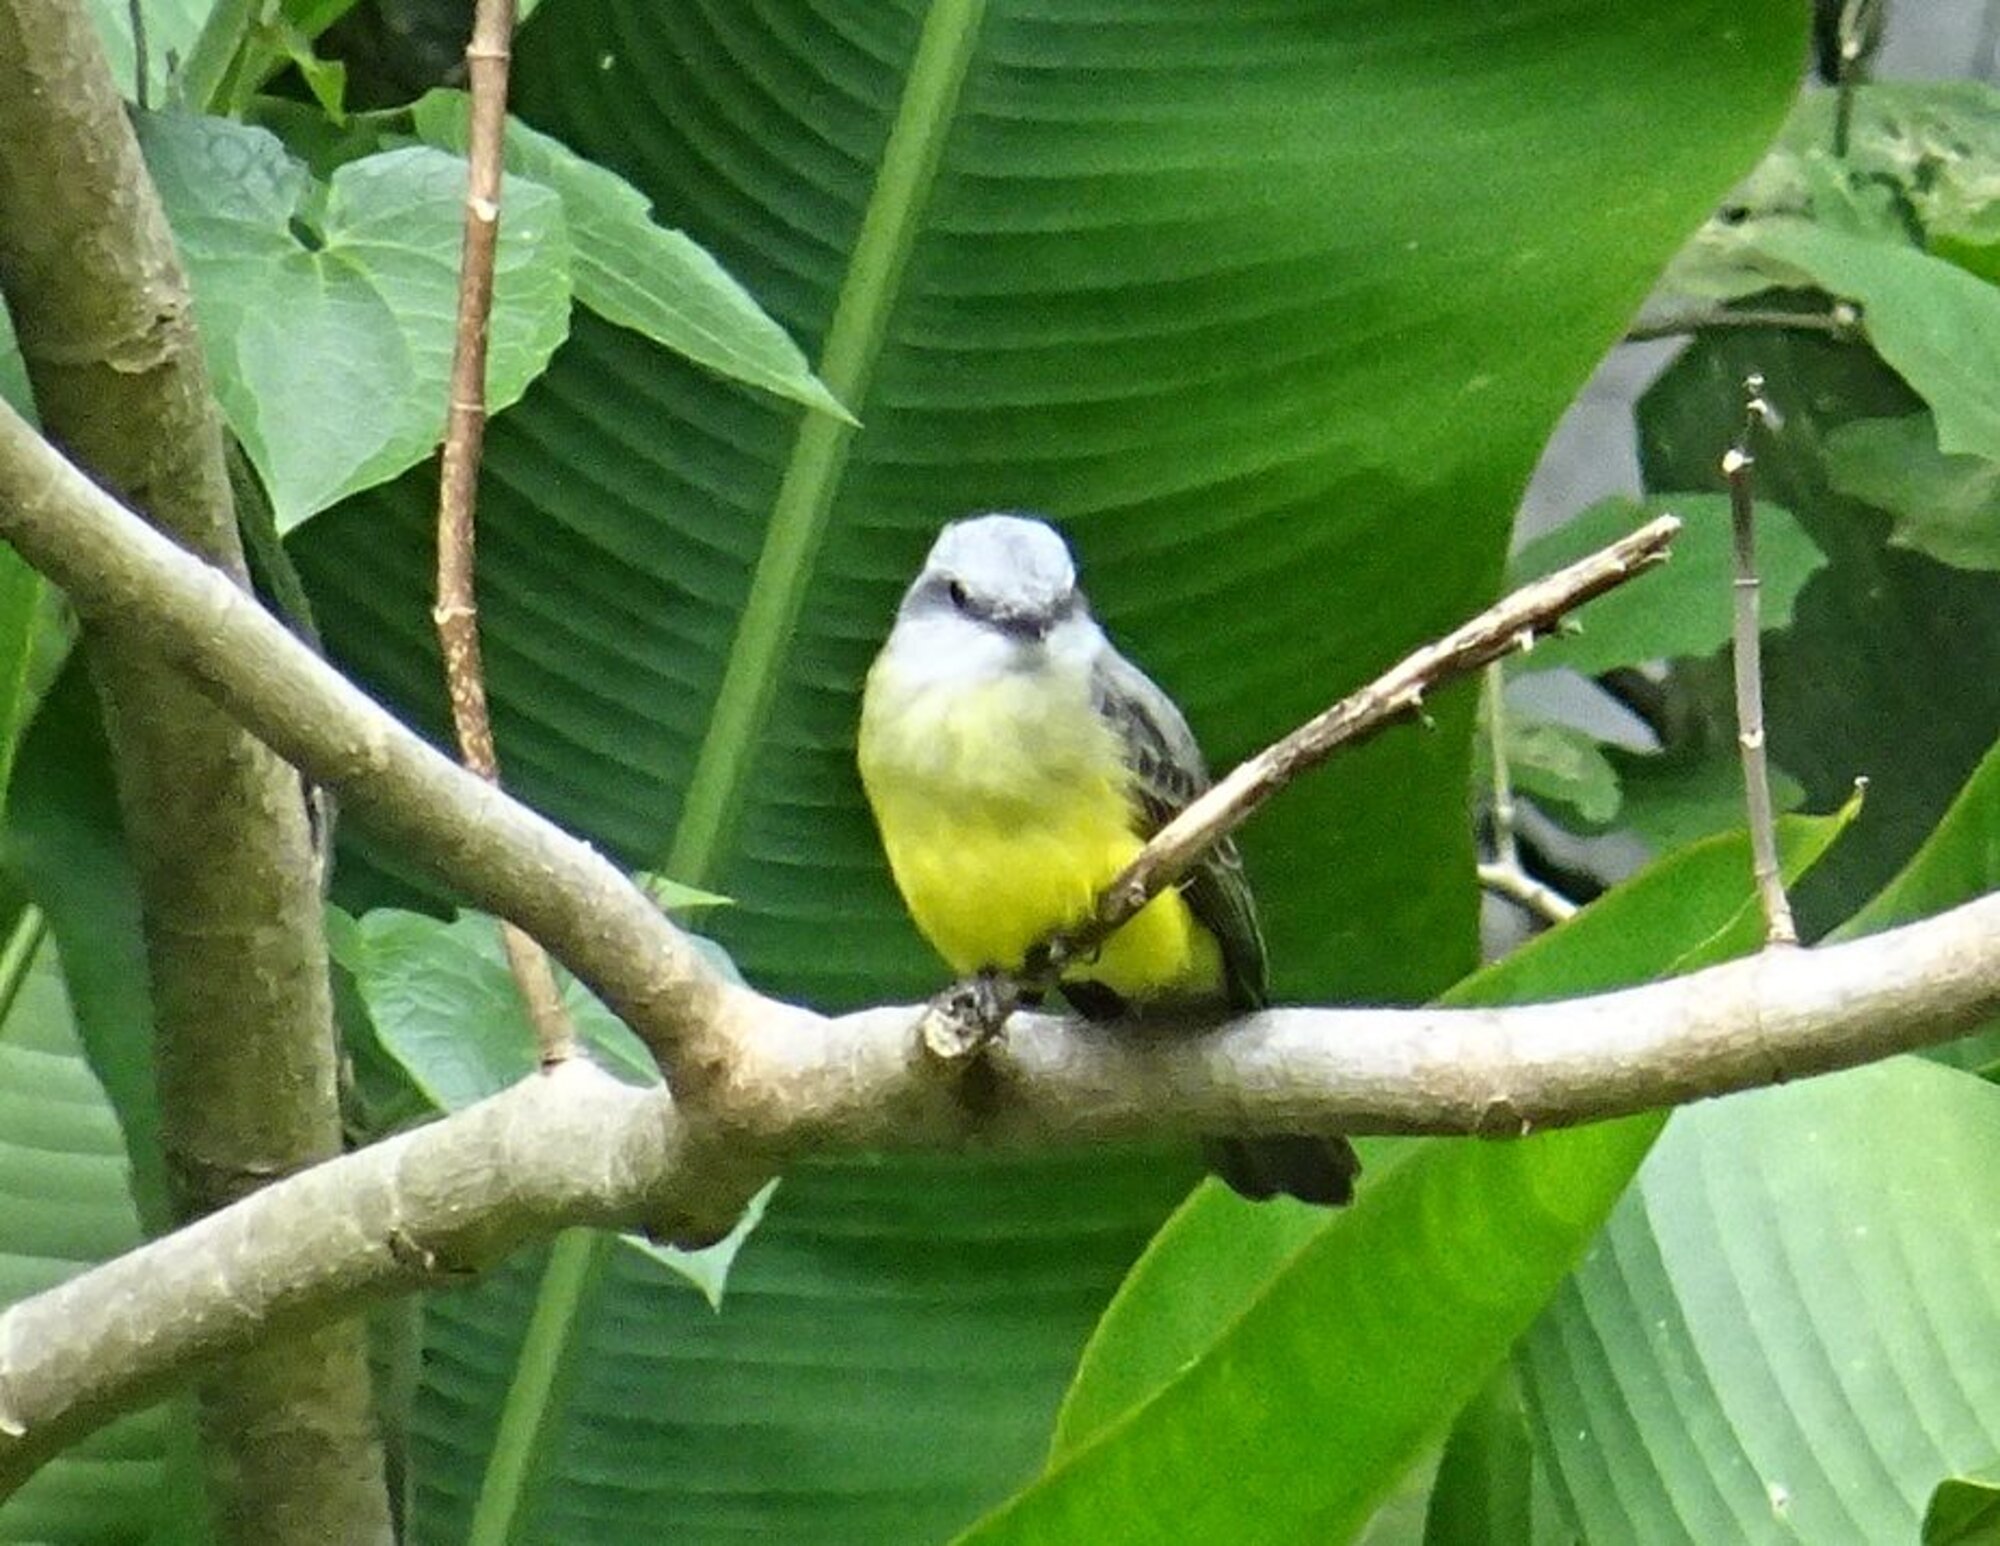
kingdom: Animalia
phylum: Chordata
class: Aves
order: Passeriformes
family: Tyrannidae
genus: Tyrannus
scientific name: Tyrannus melancholicus
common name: Tropical kingbird
